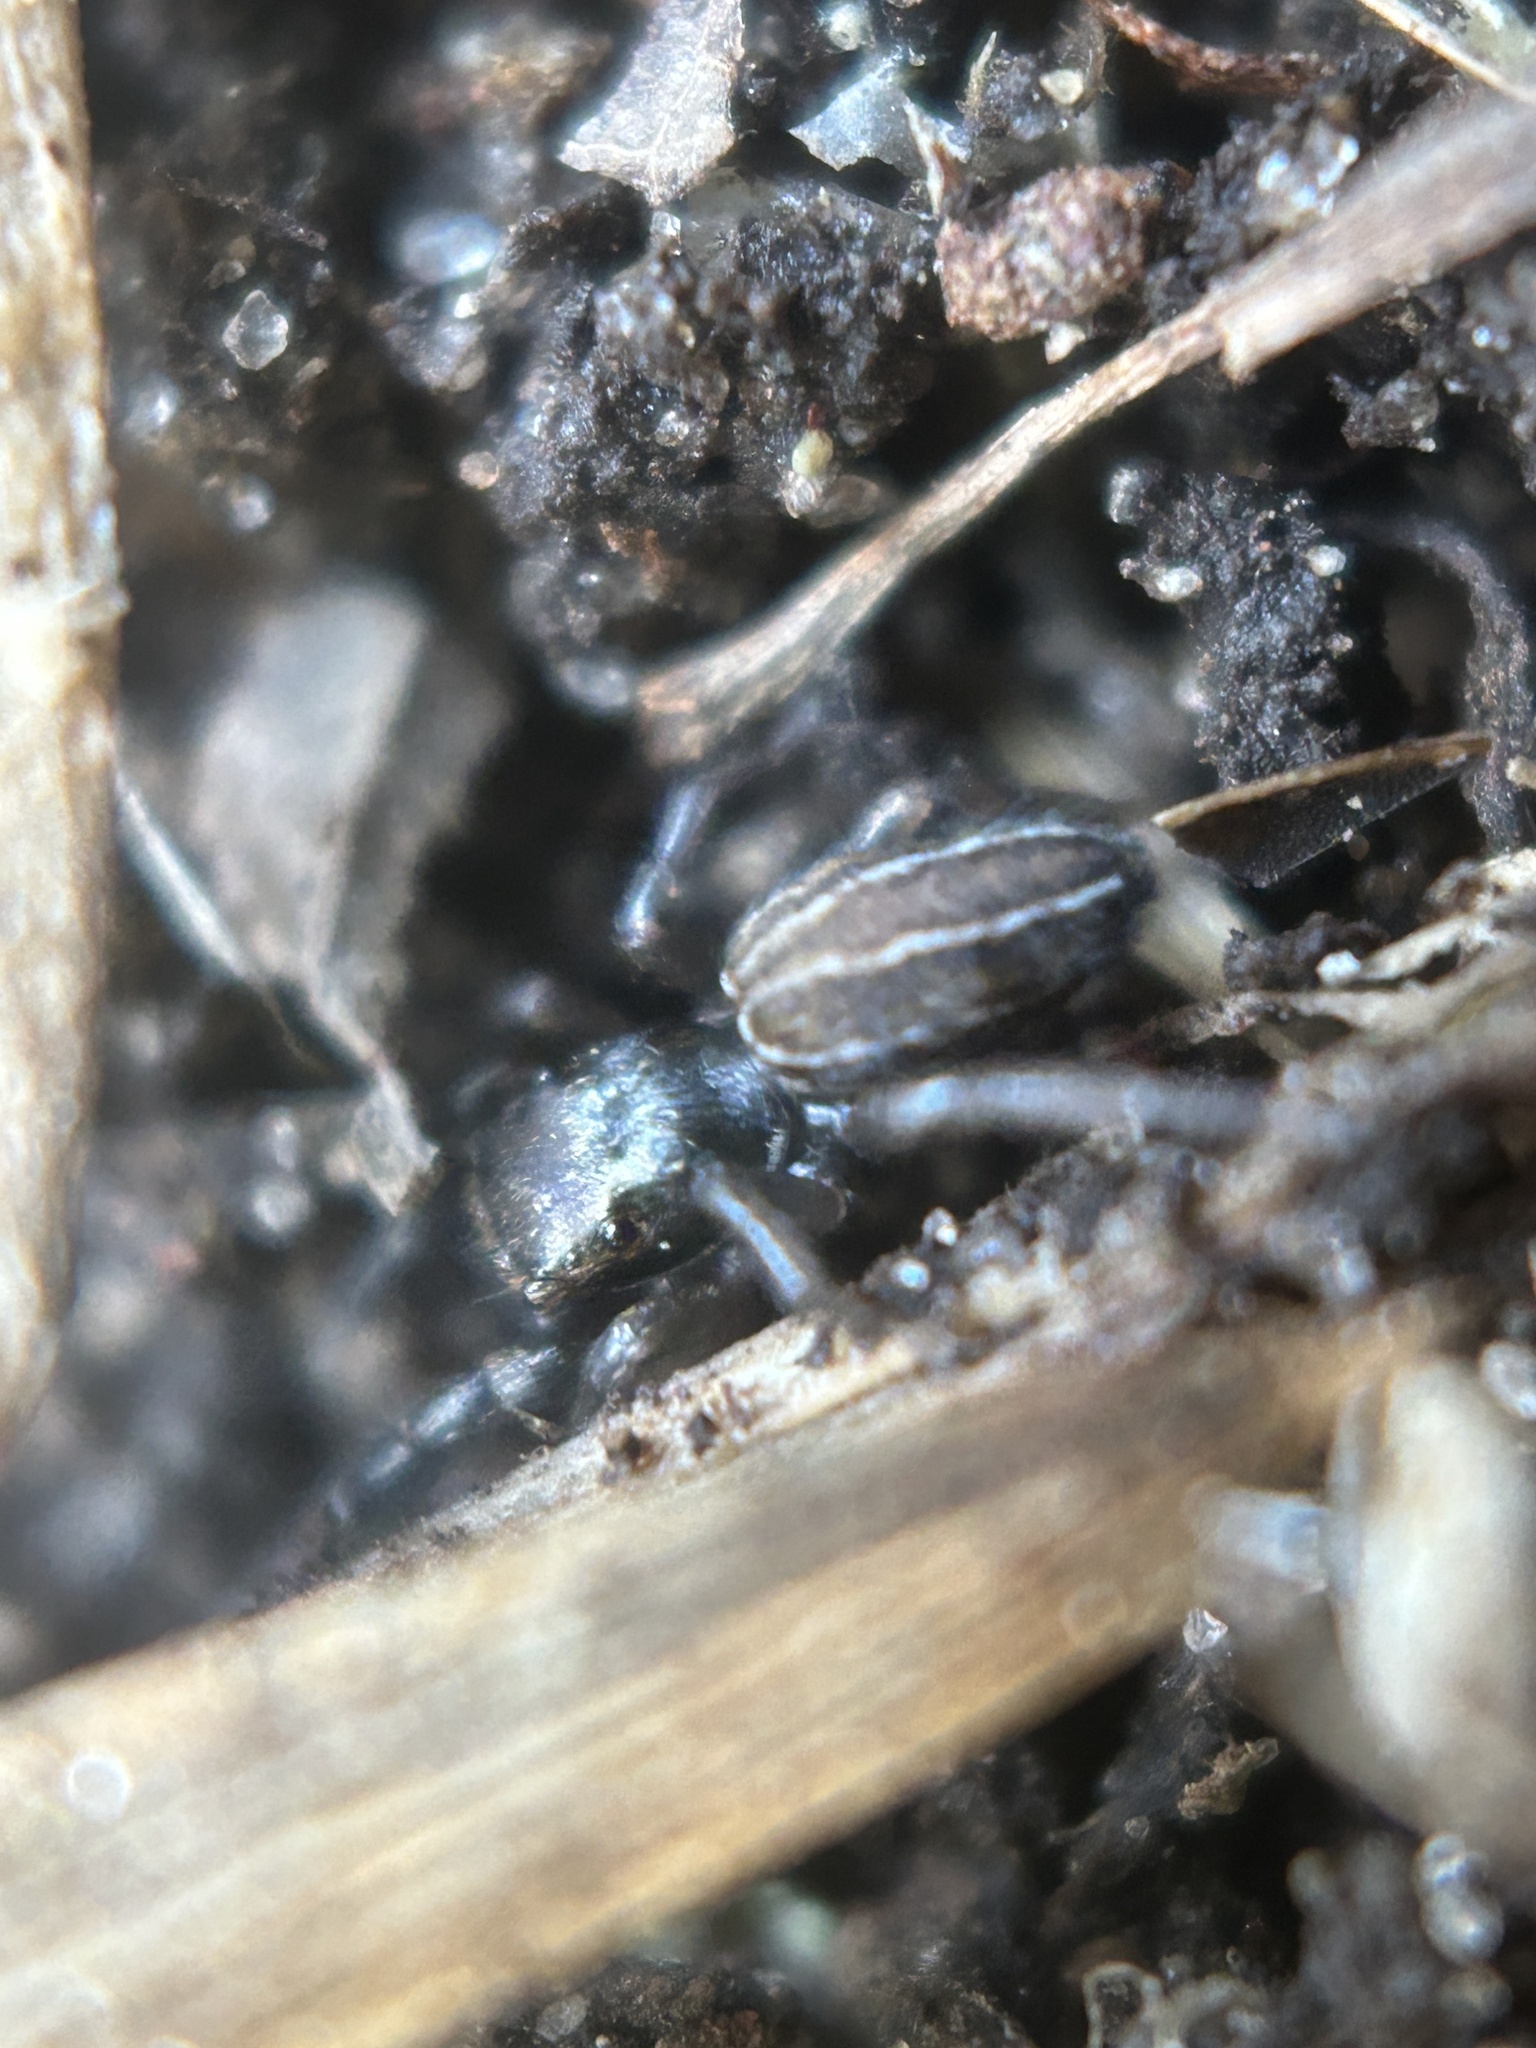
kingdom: Animalia
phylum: Arthropoda
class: Arachnida
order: Araneae
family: Salticidae
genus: Marpissa
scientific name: Marpissa lineata
